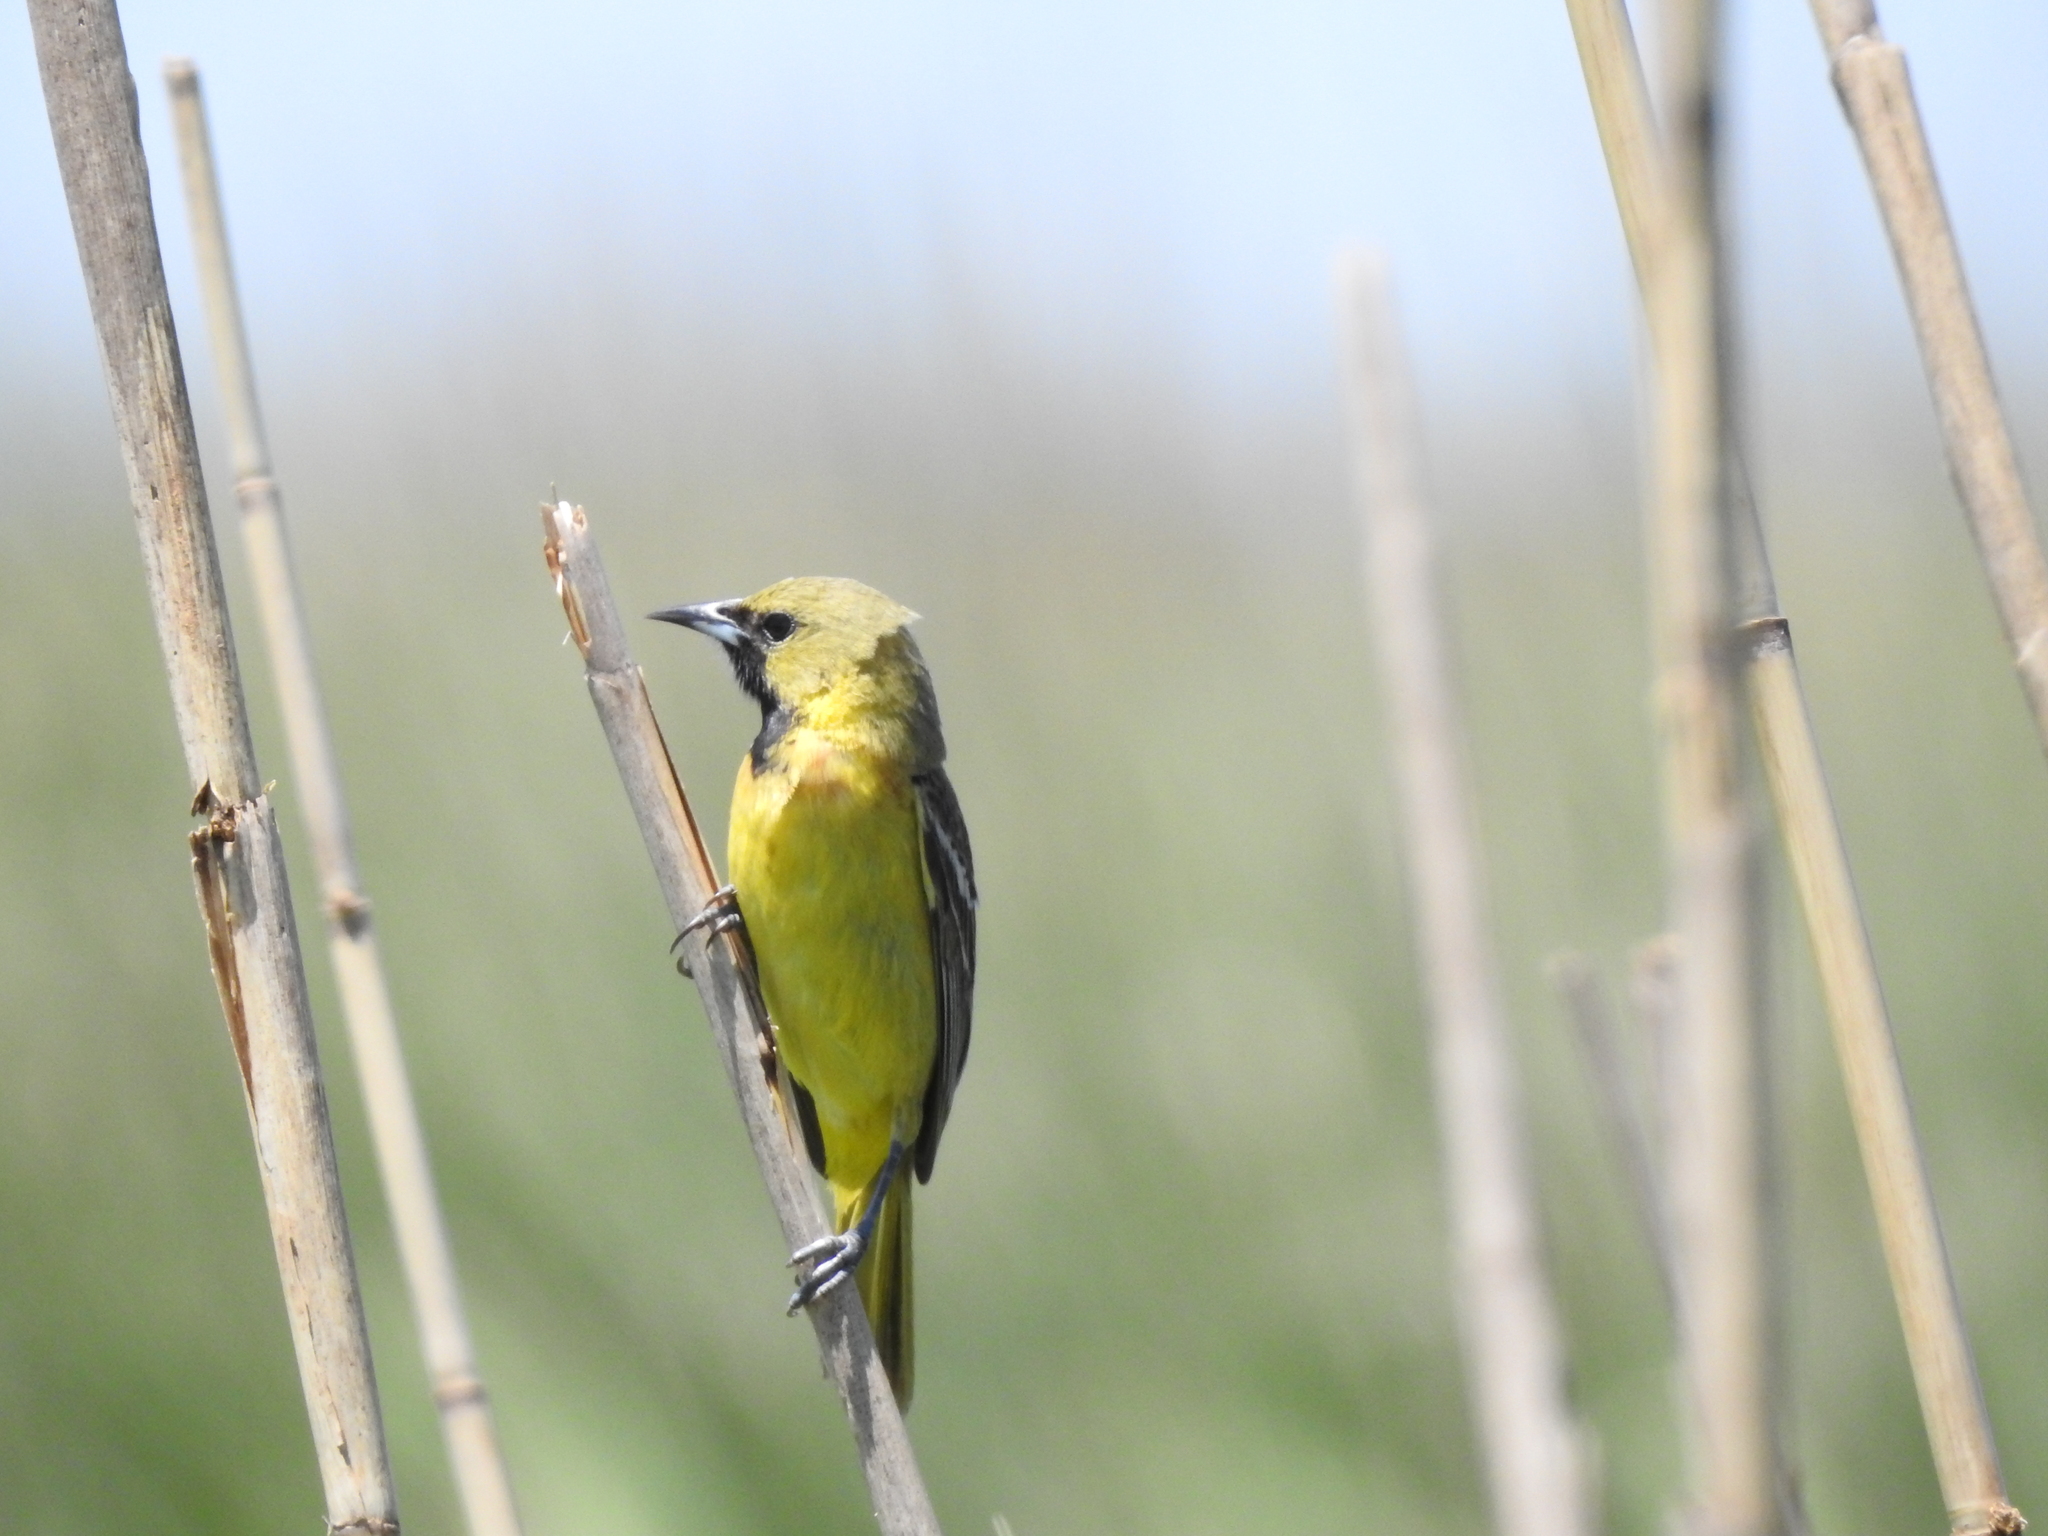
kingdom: Animalia
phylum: Chordata
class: Aves
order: Passeriformes
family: Icteridae
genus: Icterus
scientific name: Icterus spurius
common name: Orchard oriole
